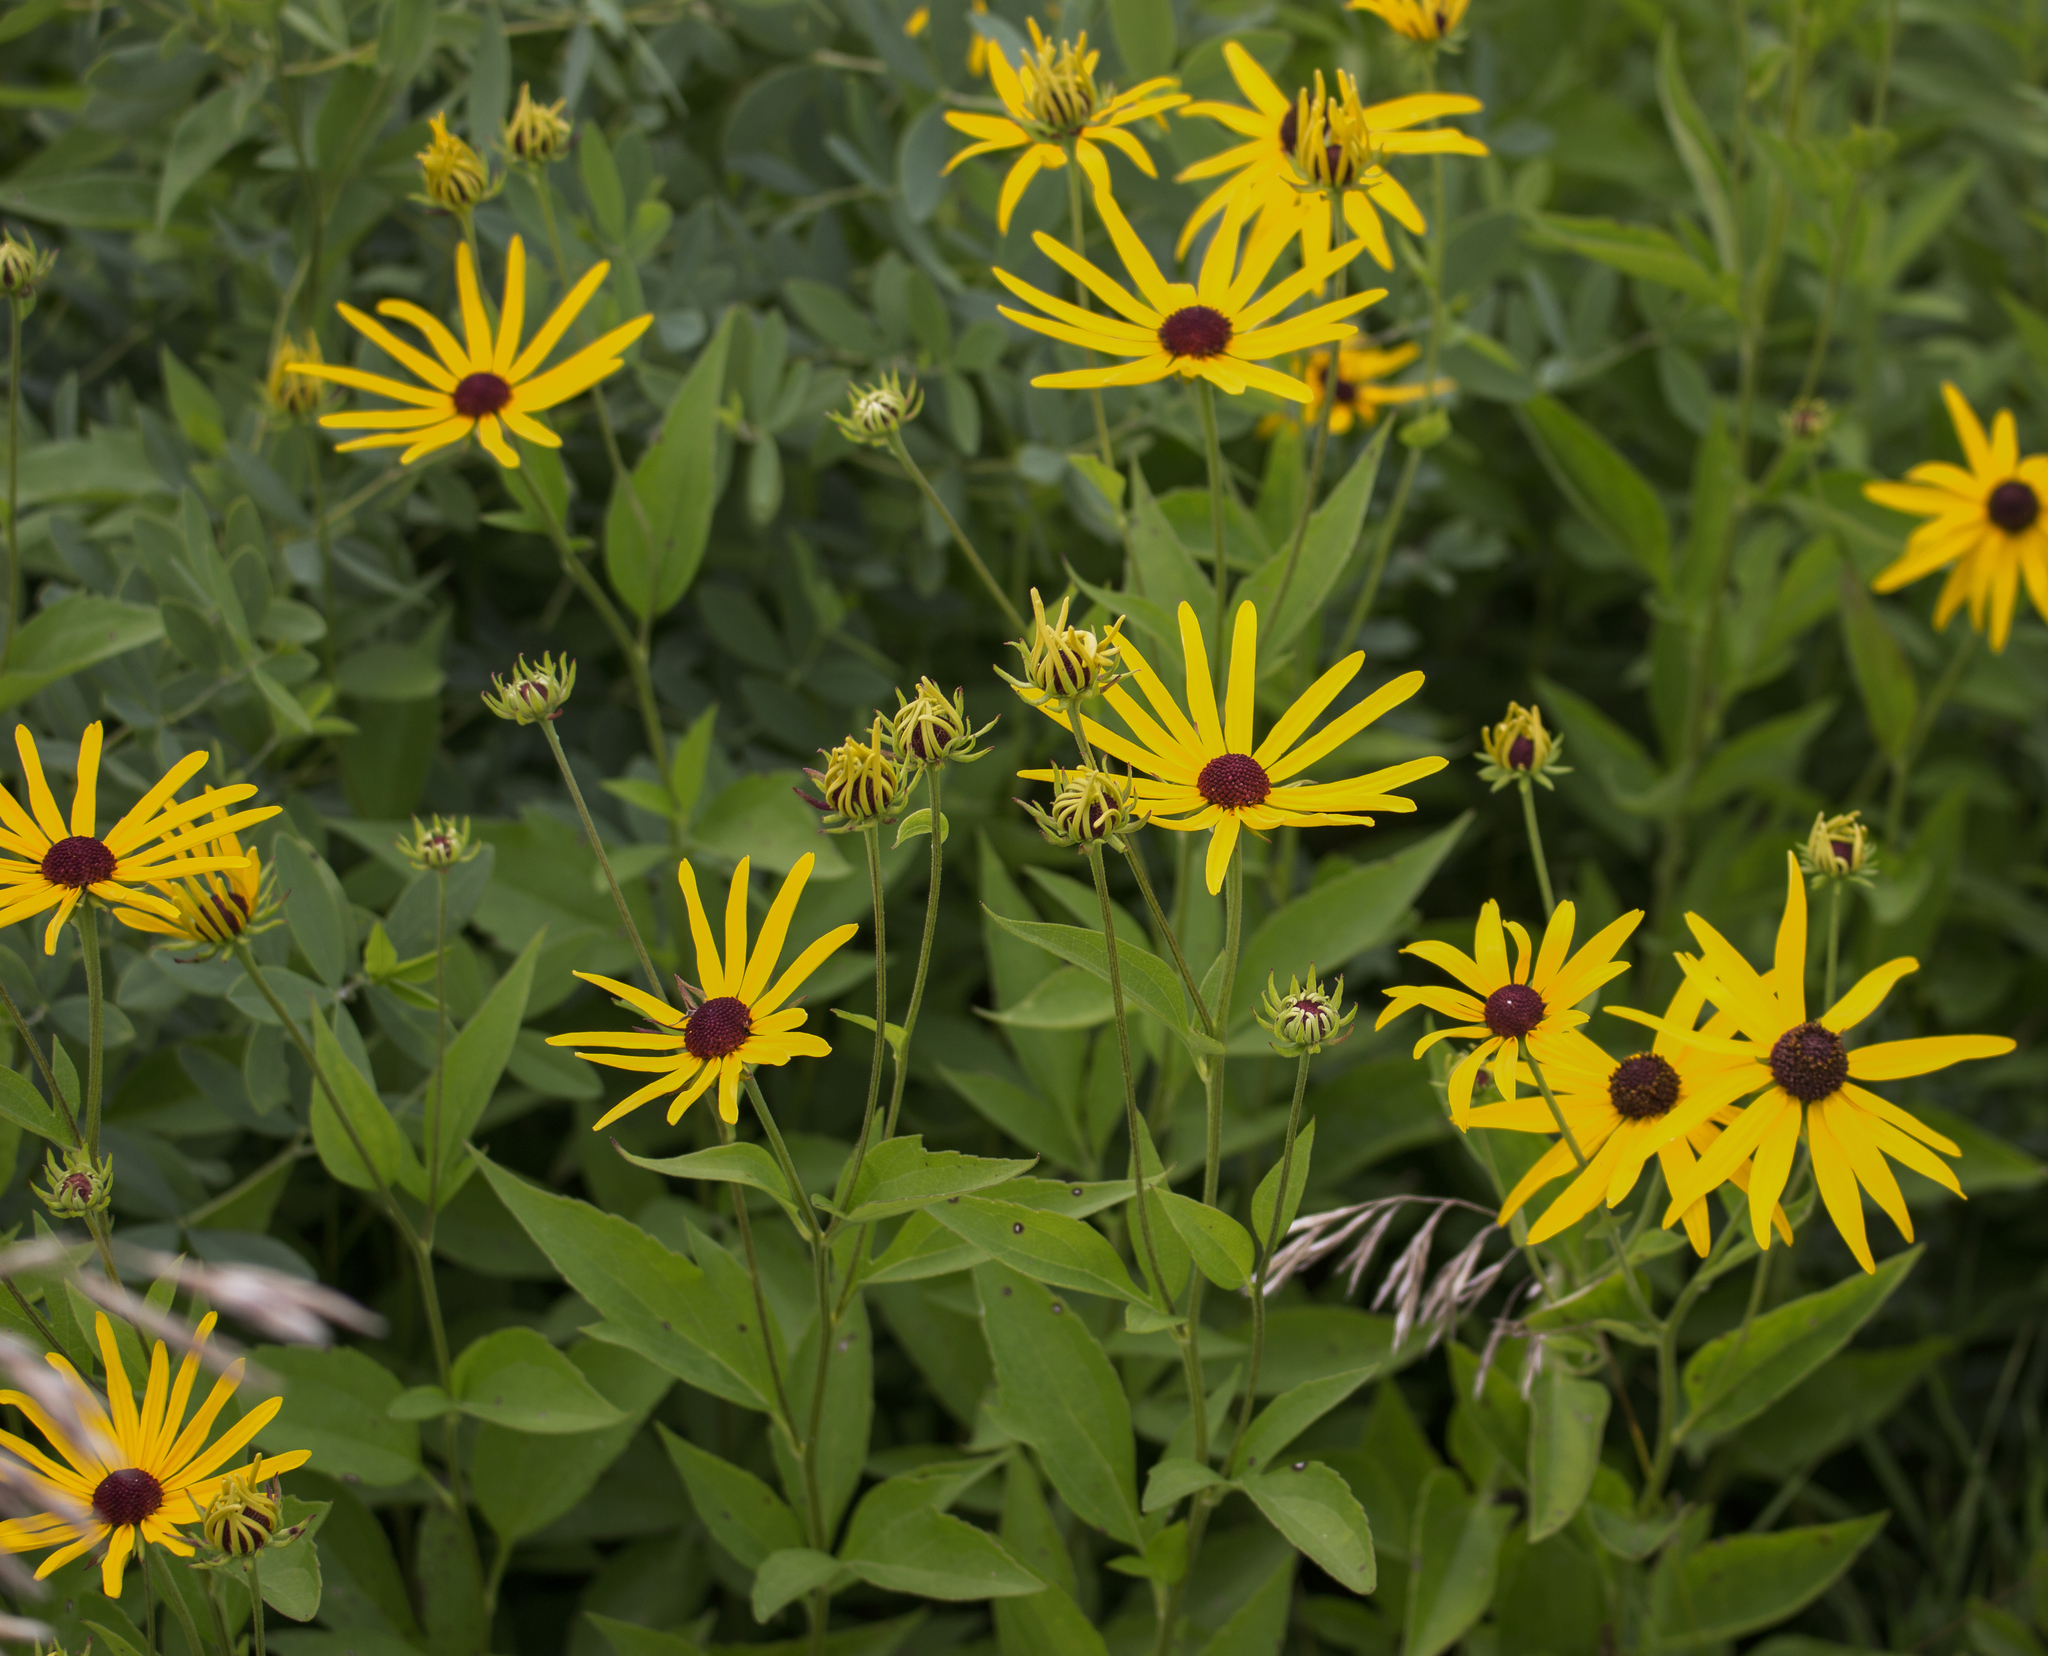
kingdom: Plantae
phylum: Tracheophyta
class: Magnoliopsida
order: Asterales
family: Asteraceae
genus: Rudbeckia
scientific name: Rudbeckia subtomentosa
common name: Sweet coneflower
